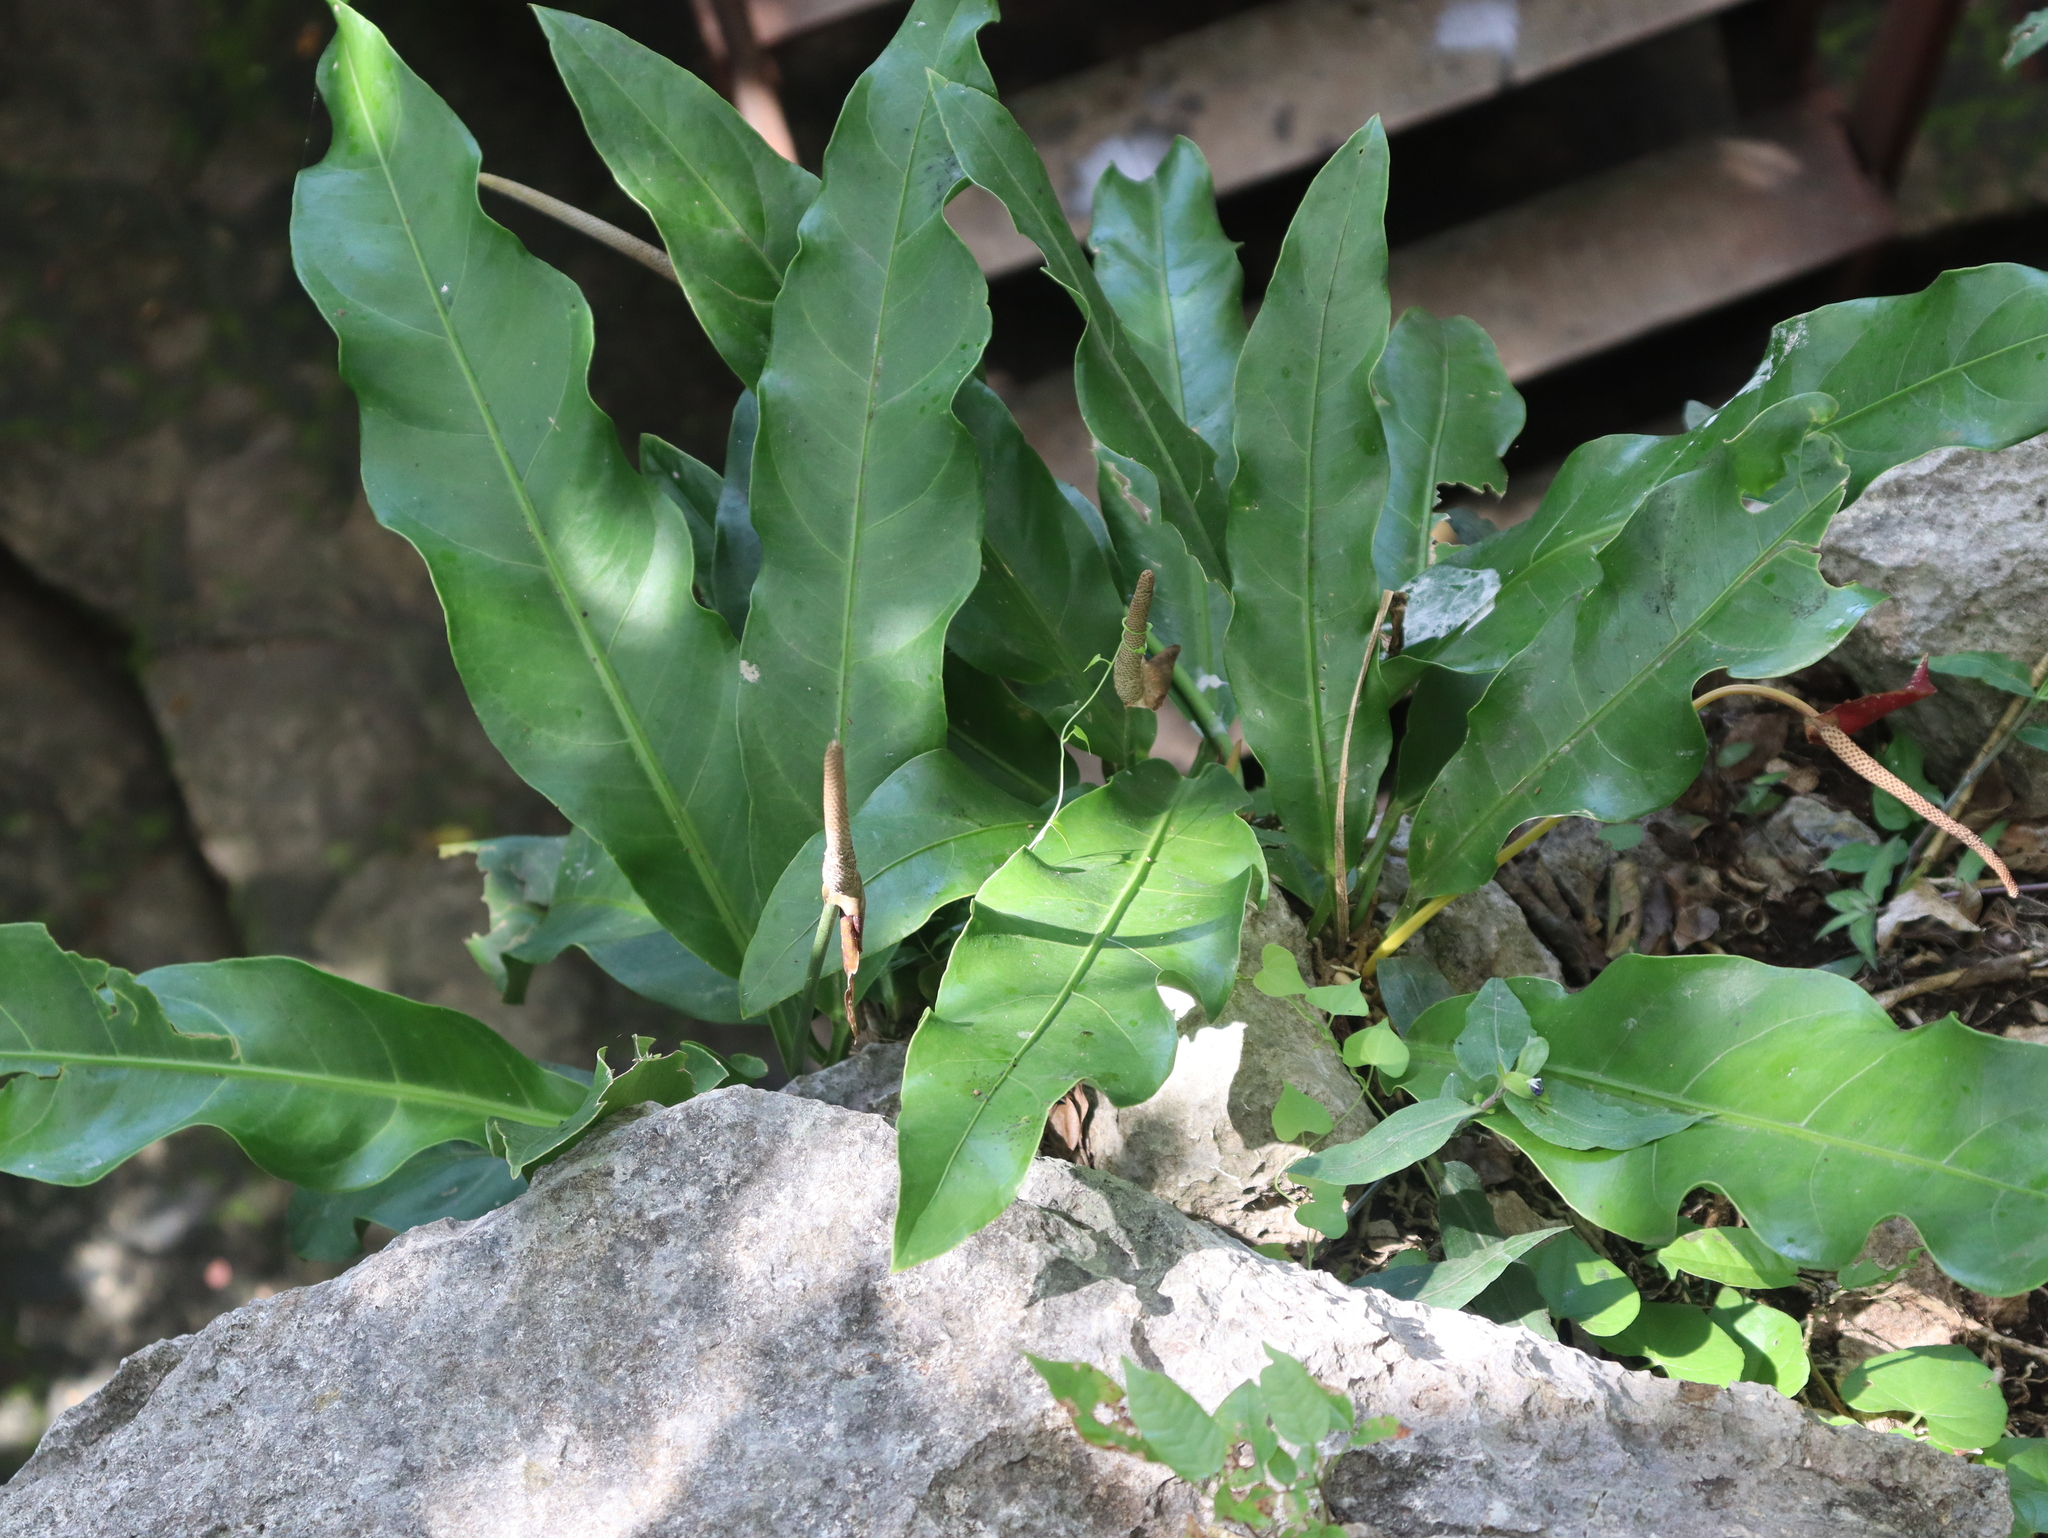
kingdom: Plantae
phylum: Tracheophyta
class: Liliopsida
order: Alismatales
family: Araceae
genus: Anthurium
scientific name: Anthurium schlechtendalii
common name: Laceleaf
